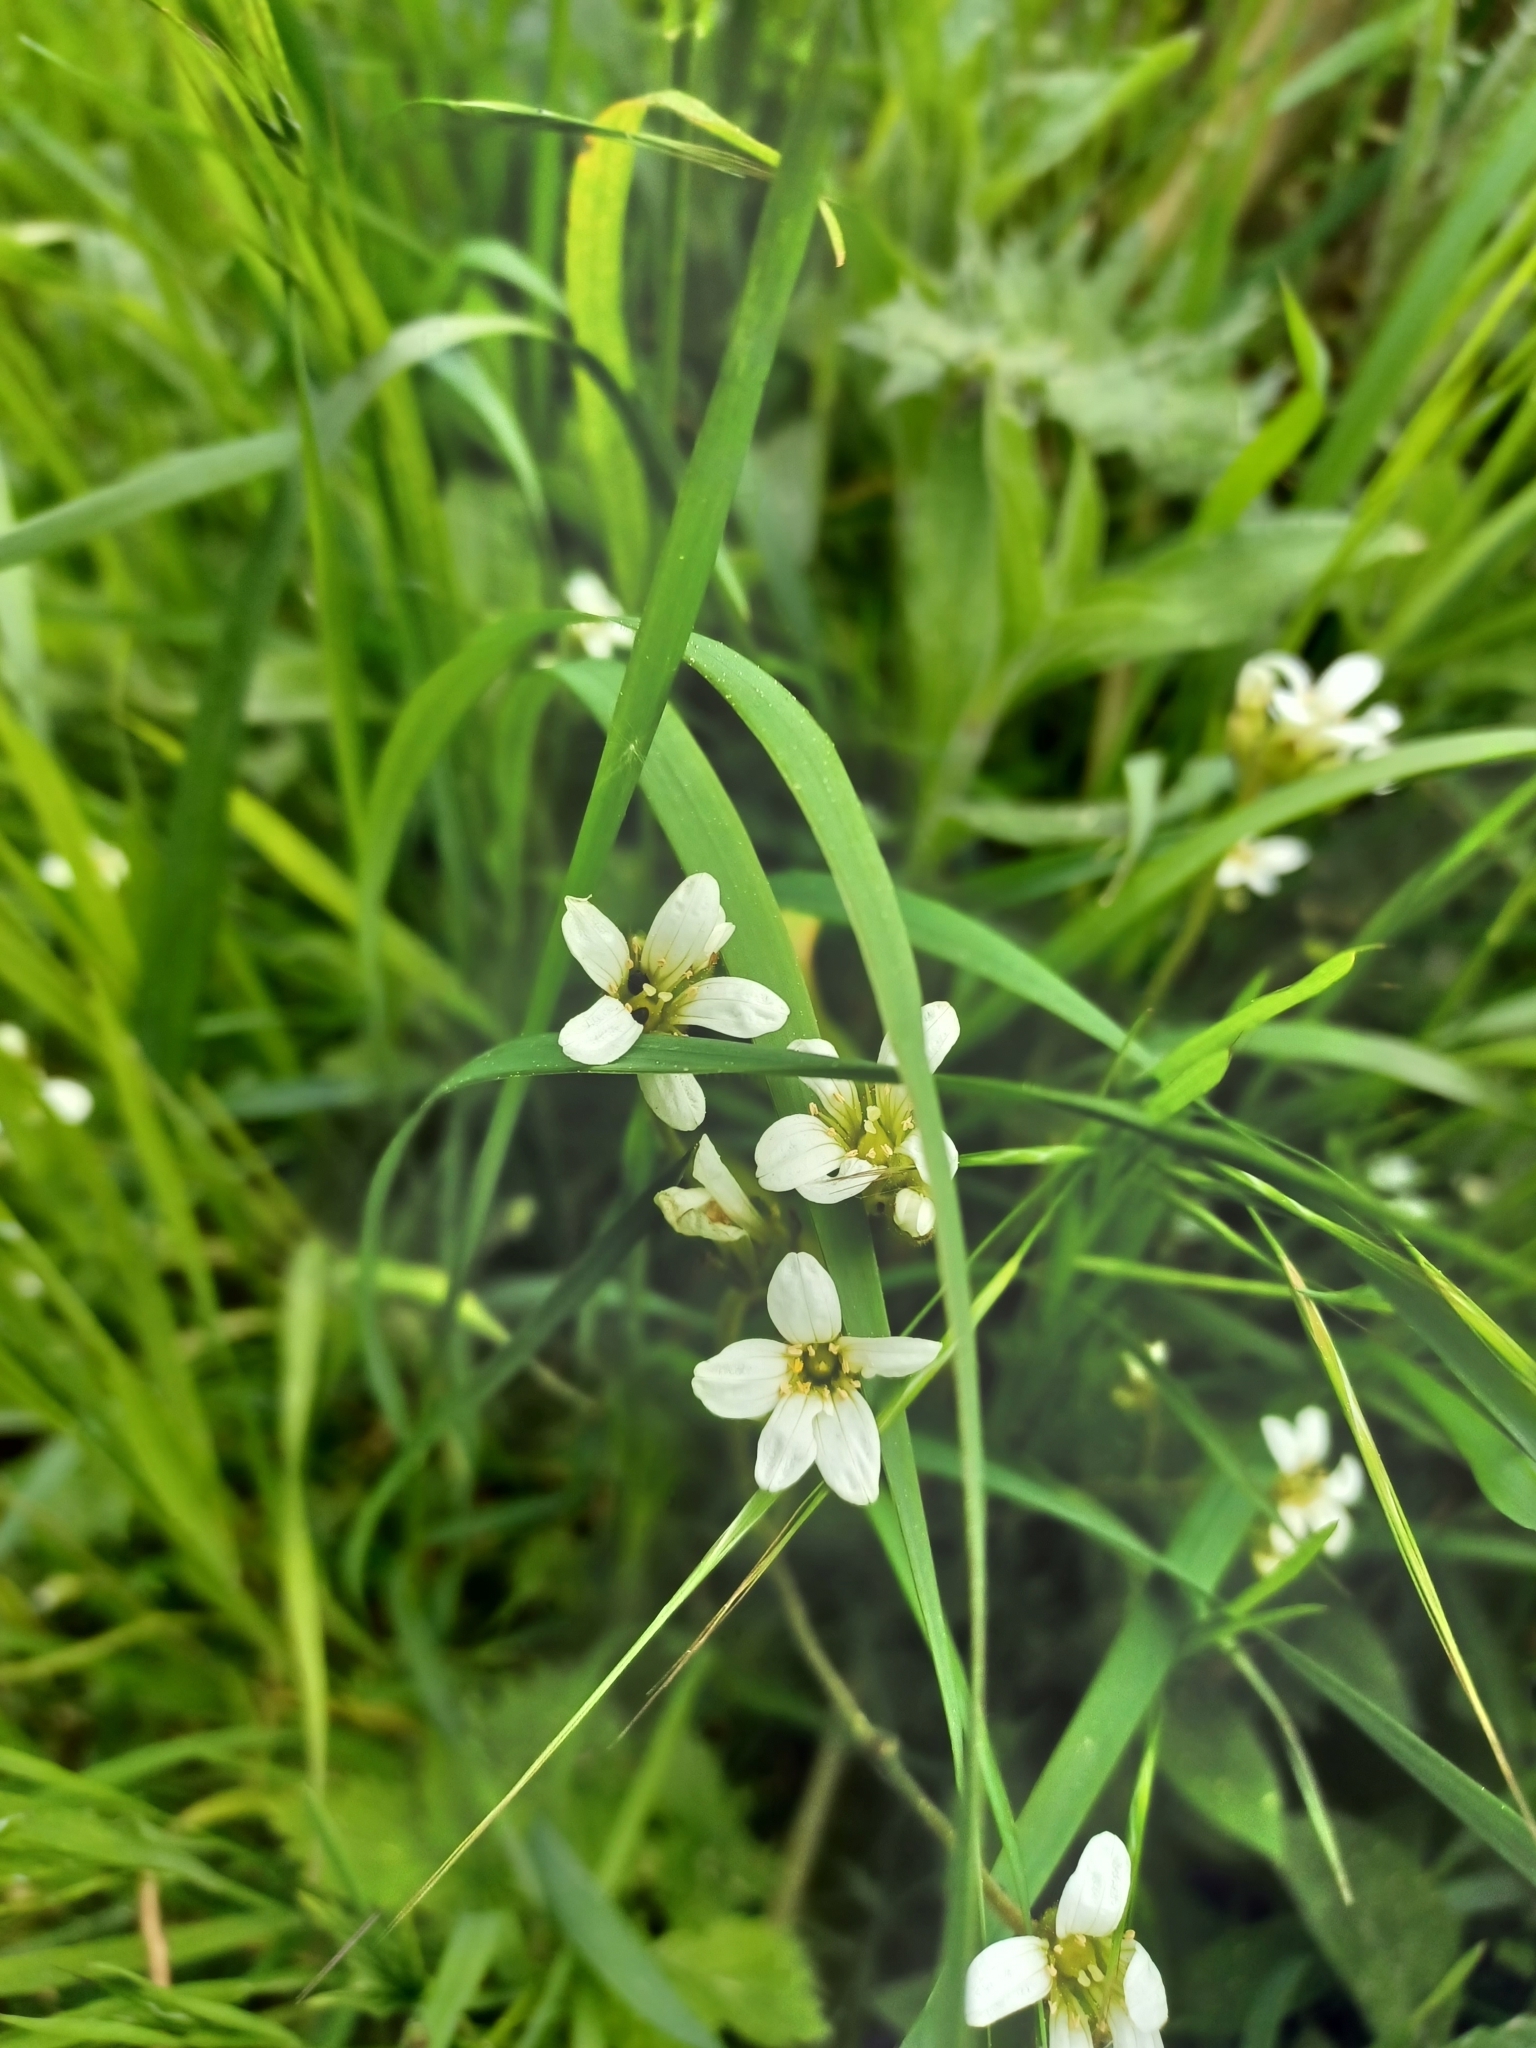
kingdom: Plantae
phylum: Tracheophyta
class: Magnoliopsida
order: Saxifragales
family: Saxifragaceae
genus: Saxifraga
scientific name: Saxifraga granulata
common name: Meadow saxifrage
